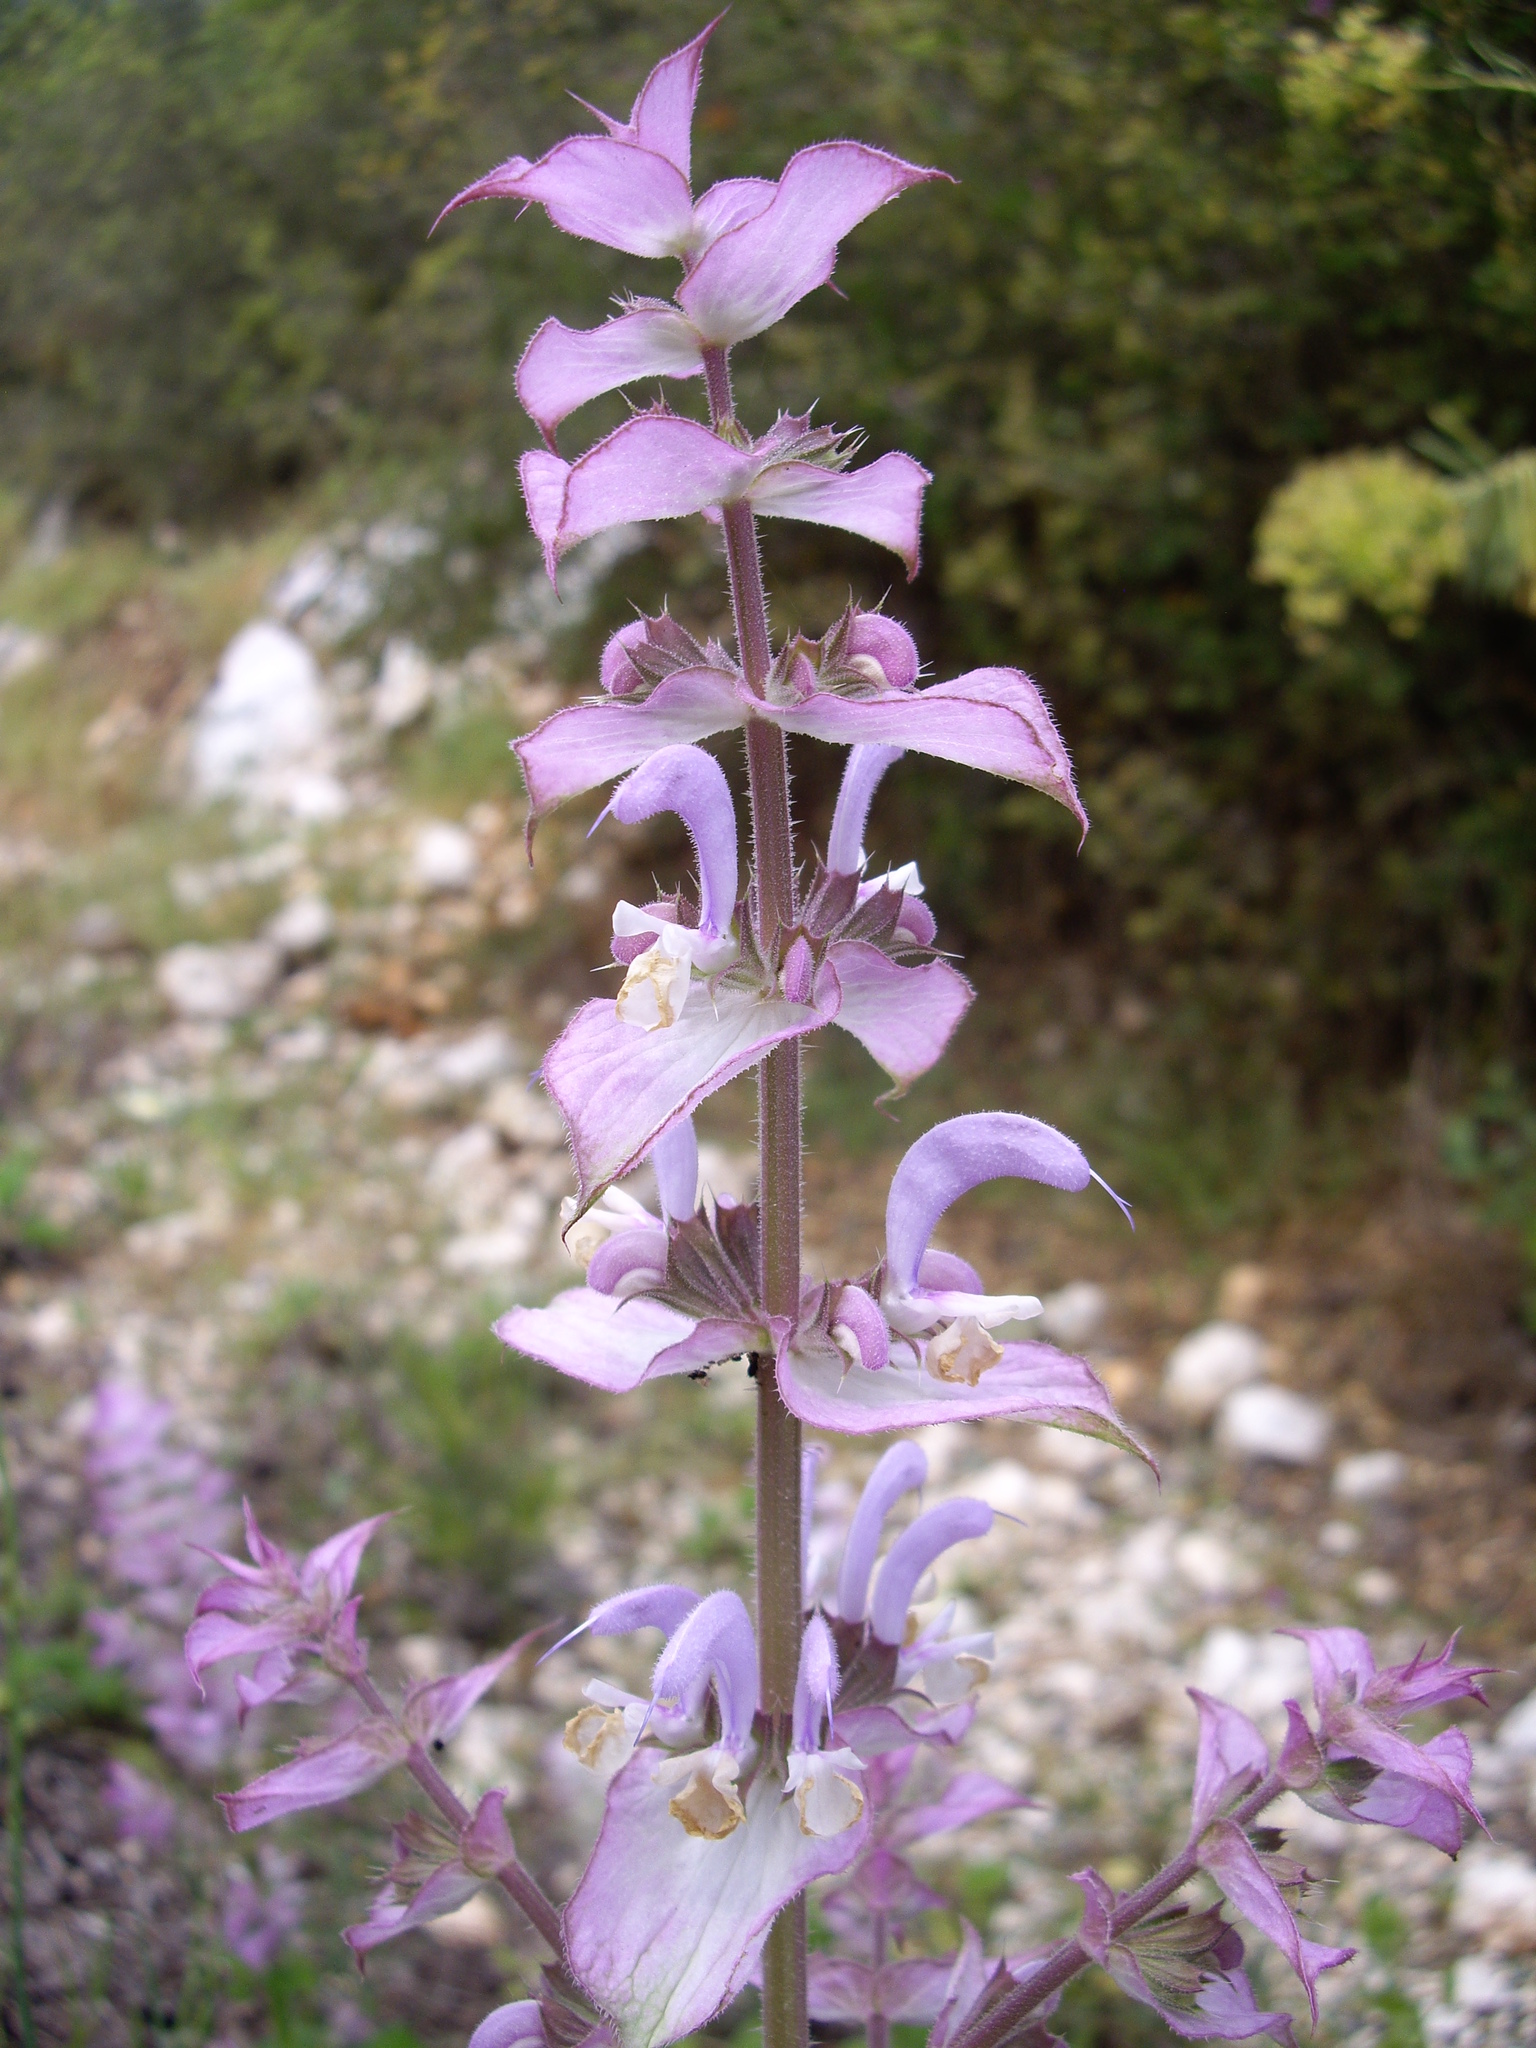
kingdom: Plantae
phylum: Tracheophyta
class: Magnoliopsida
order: Lamiales
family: Lamiaceae
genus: Salvia
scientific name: Salvia sclarea
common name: Clary
